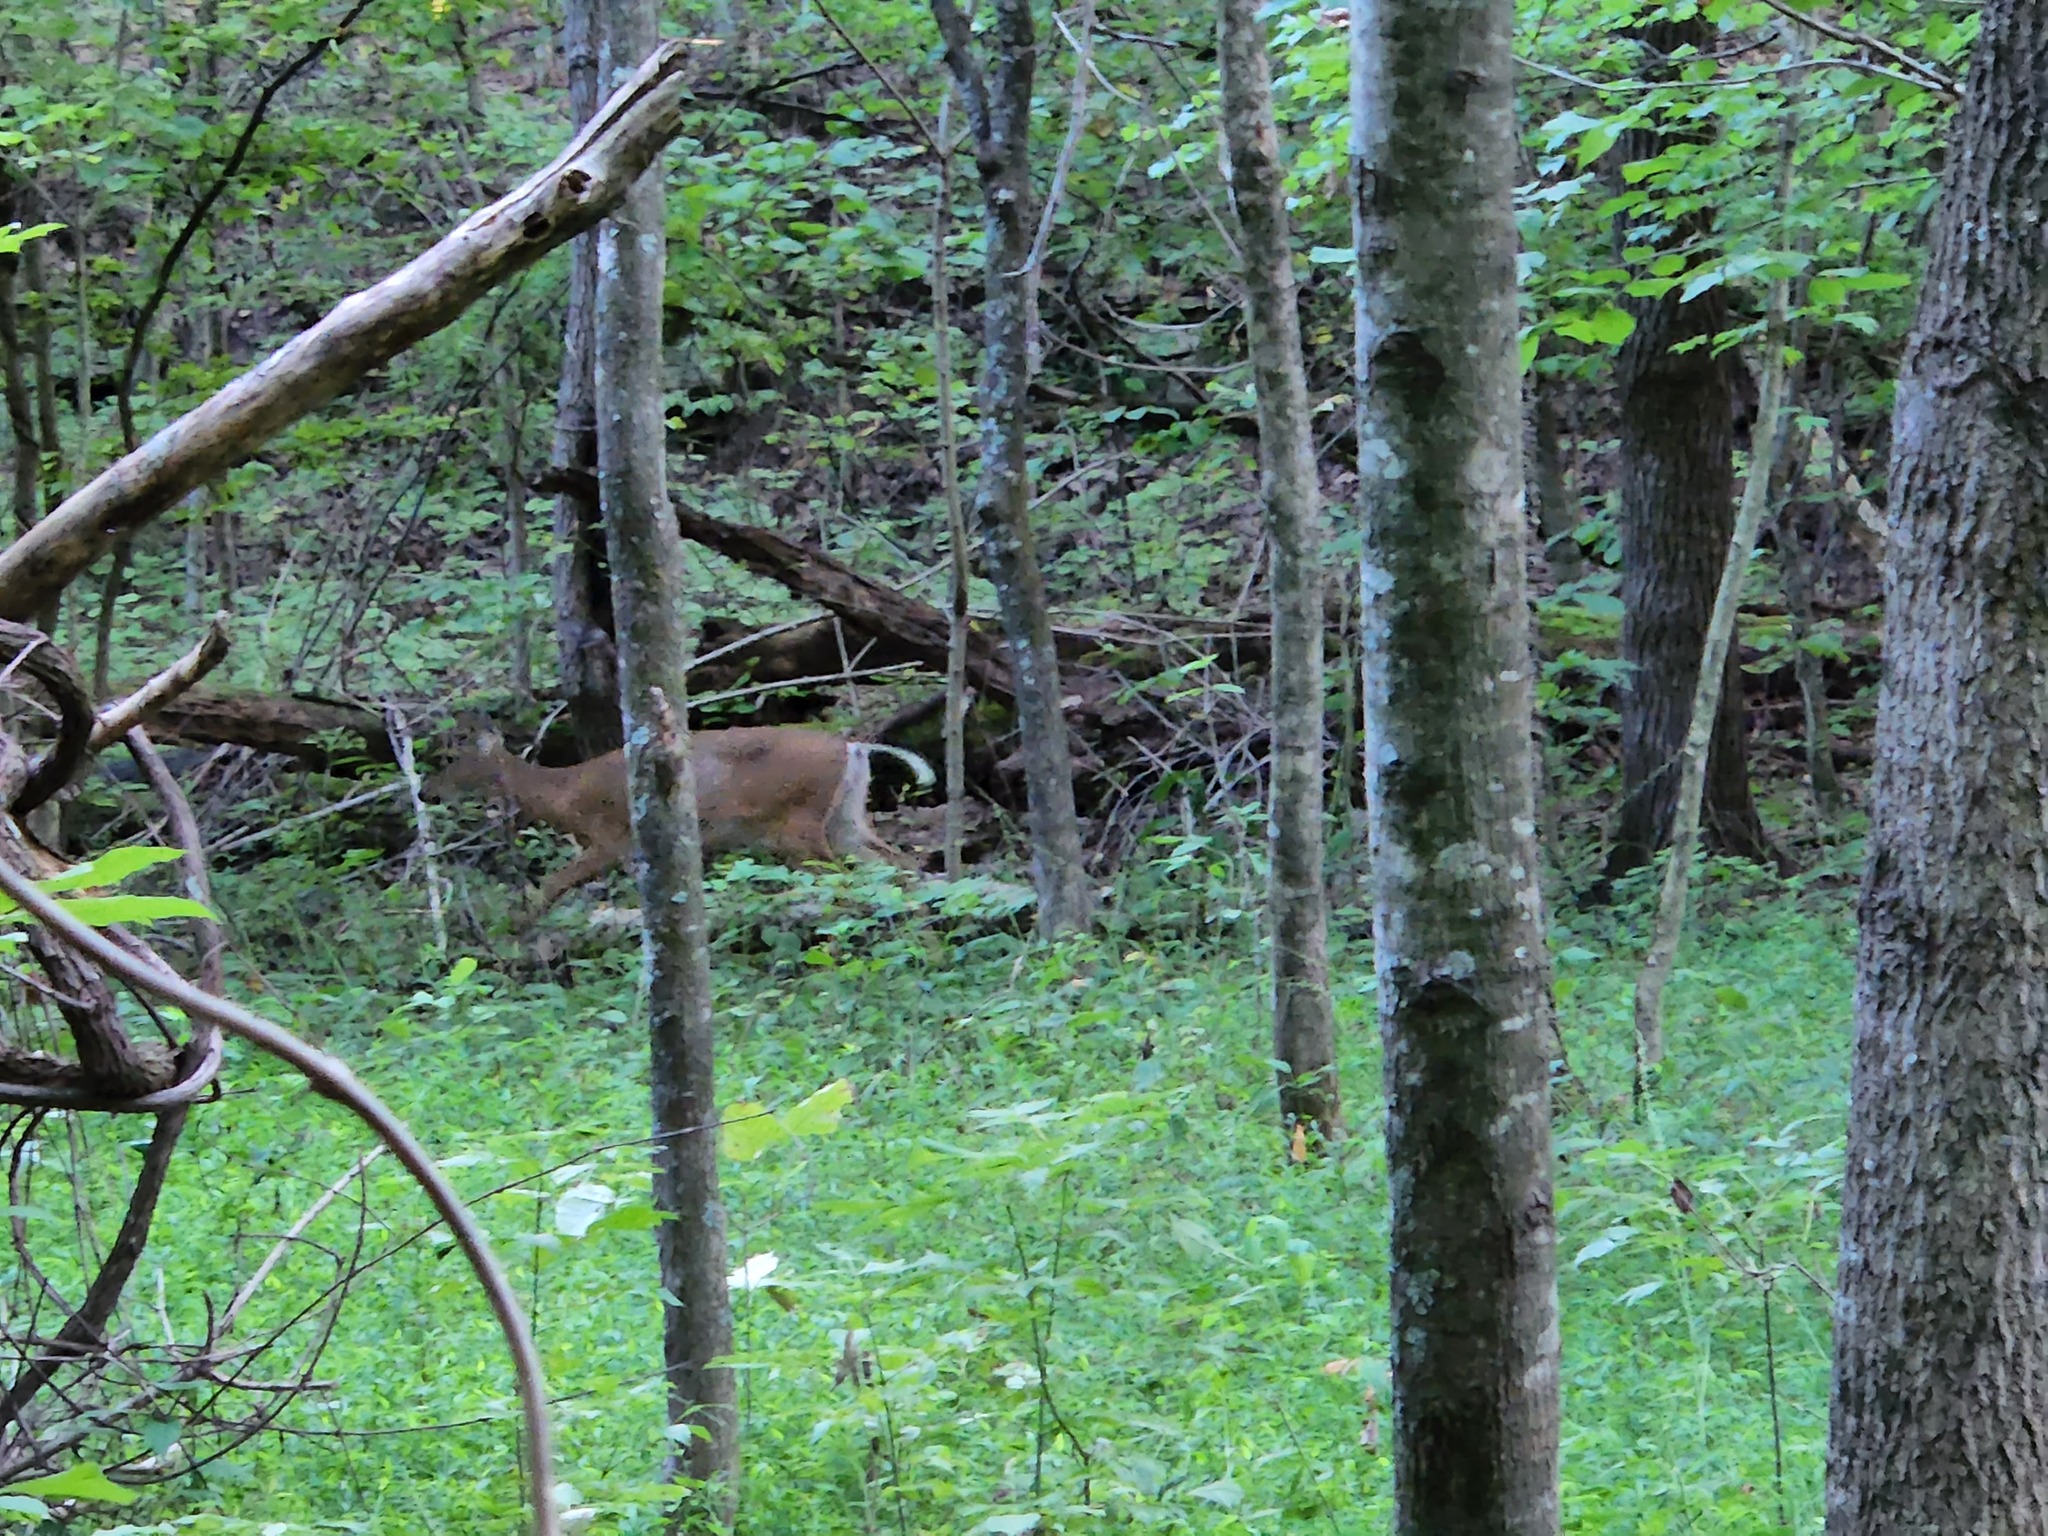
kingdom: Animalia
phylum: Chordata
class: Mammalia
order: Artiodactyla
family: Cervidae
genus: Odocoileus
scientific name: Odocoileus virginianus
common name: White-tailed deer
